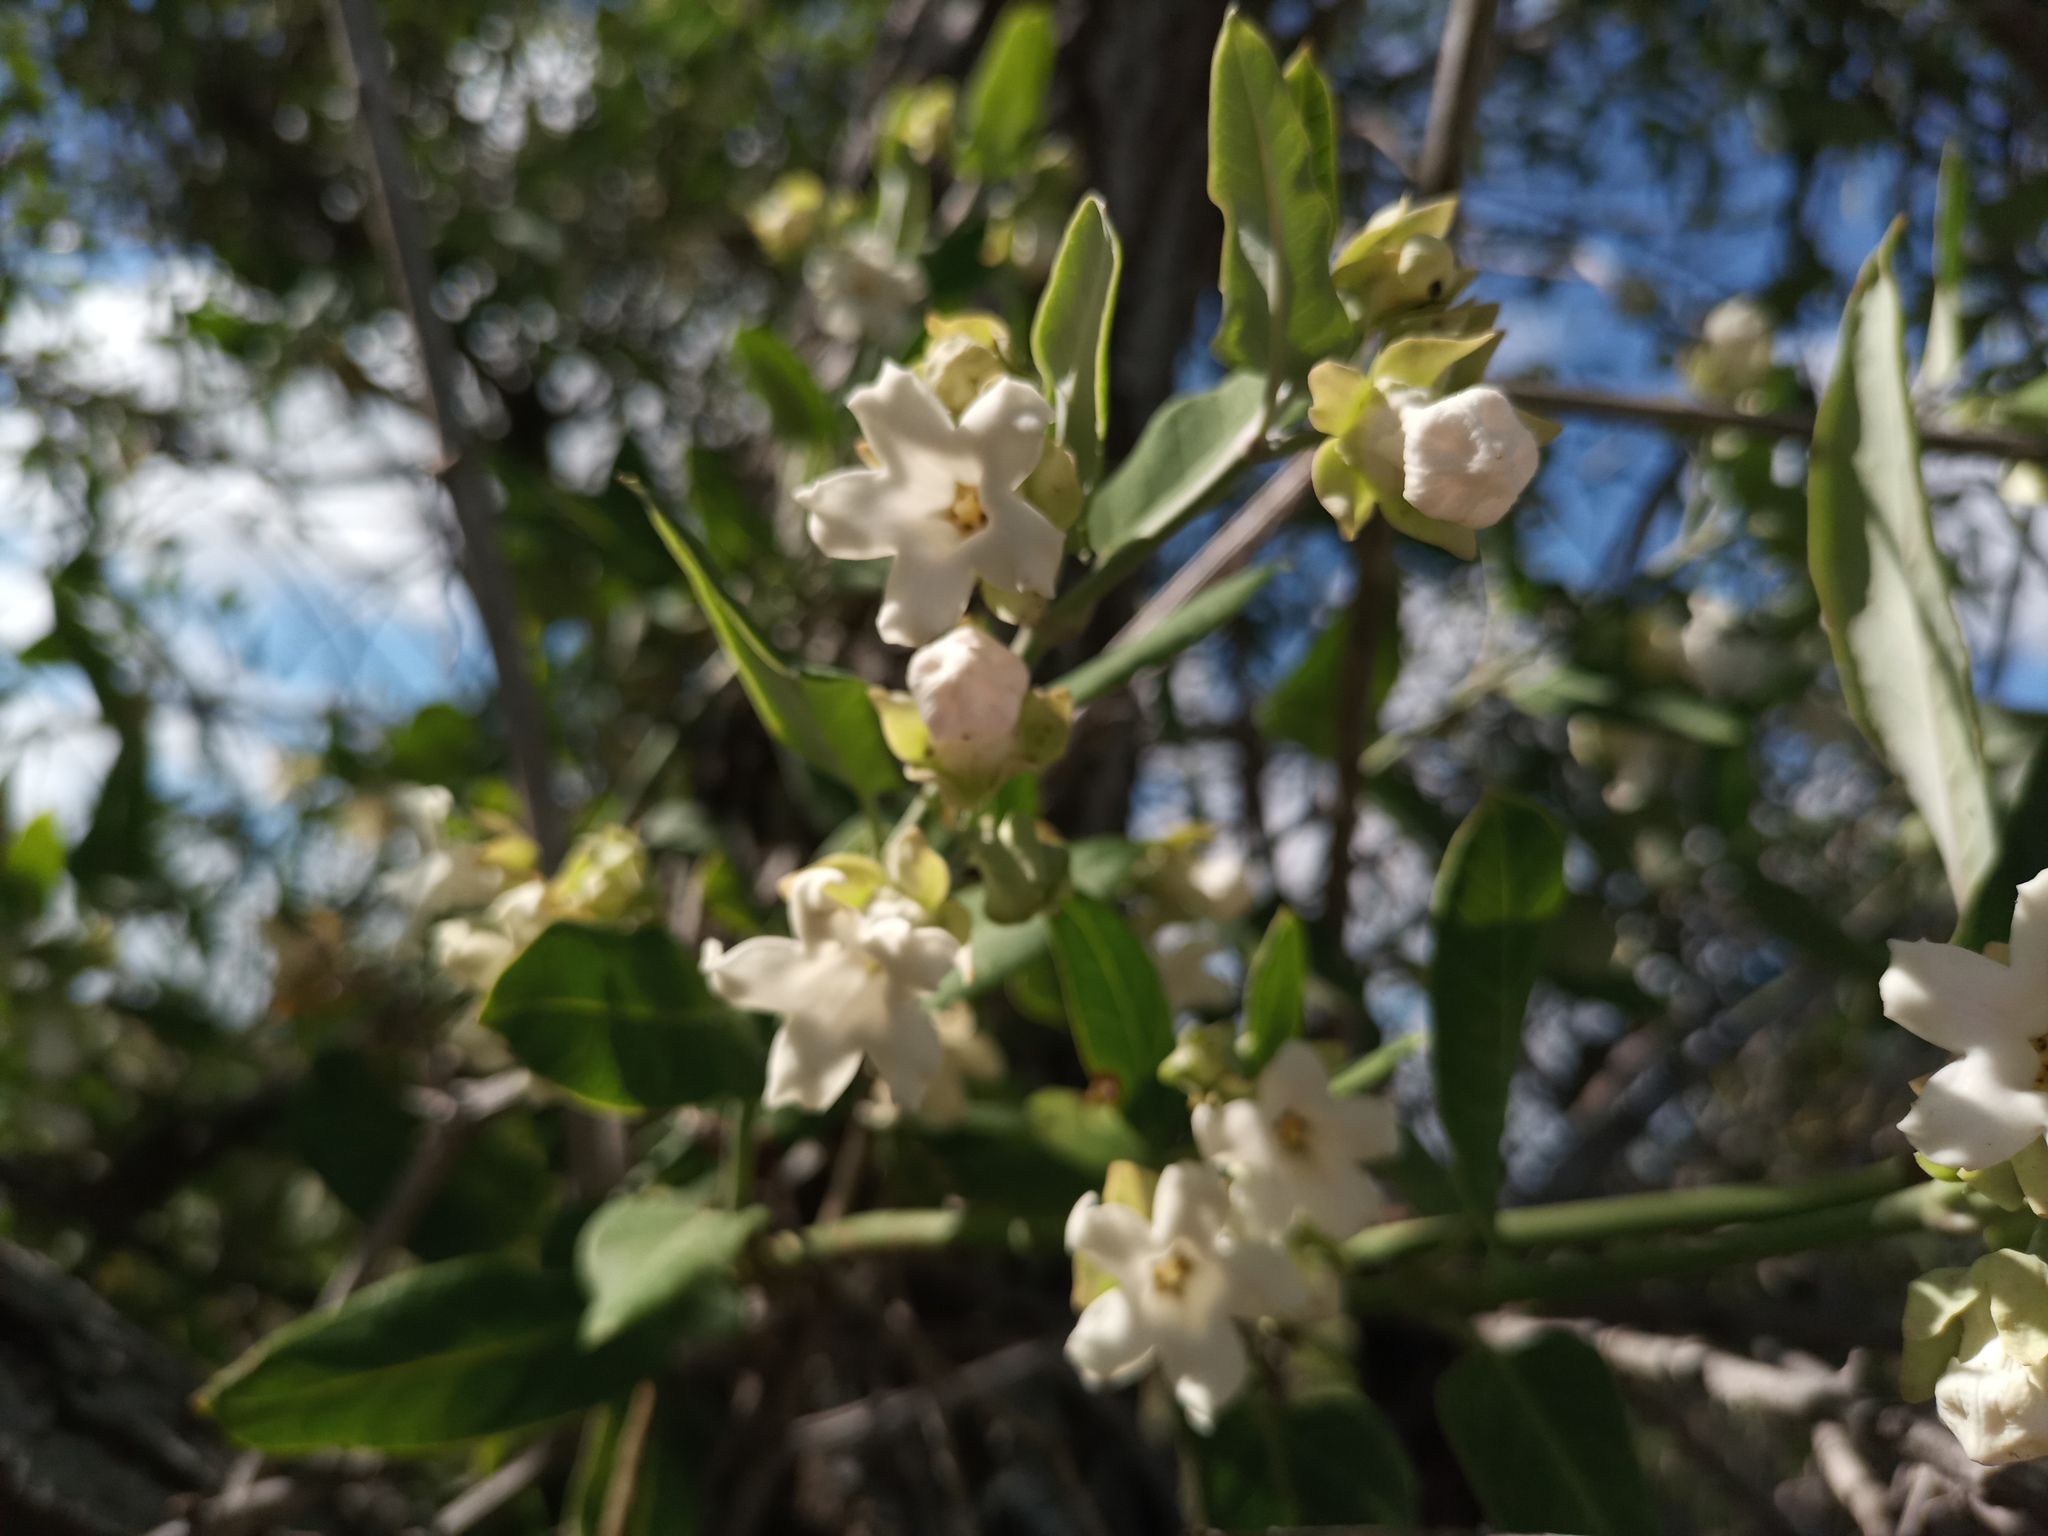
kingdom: Plantae
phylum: Tracheophyta
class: Magnoliopsida
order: Gentianales
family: Apocynaceae
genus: Araujia
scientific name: Araujia sericifera
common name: White bladderflower
